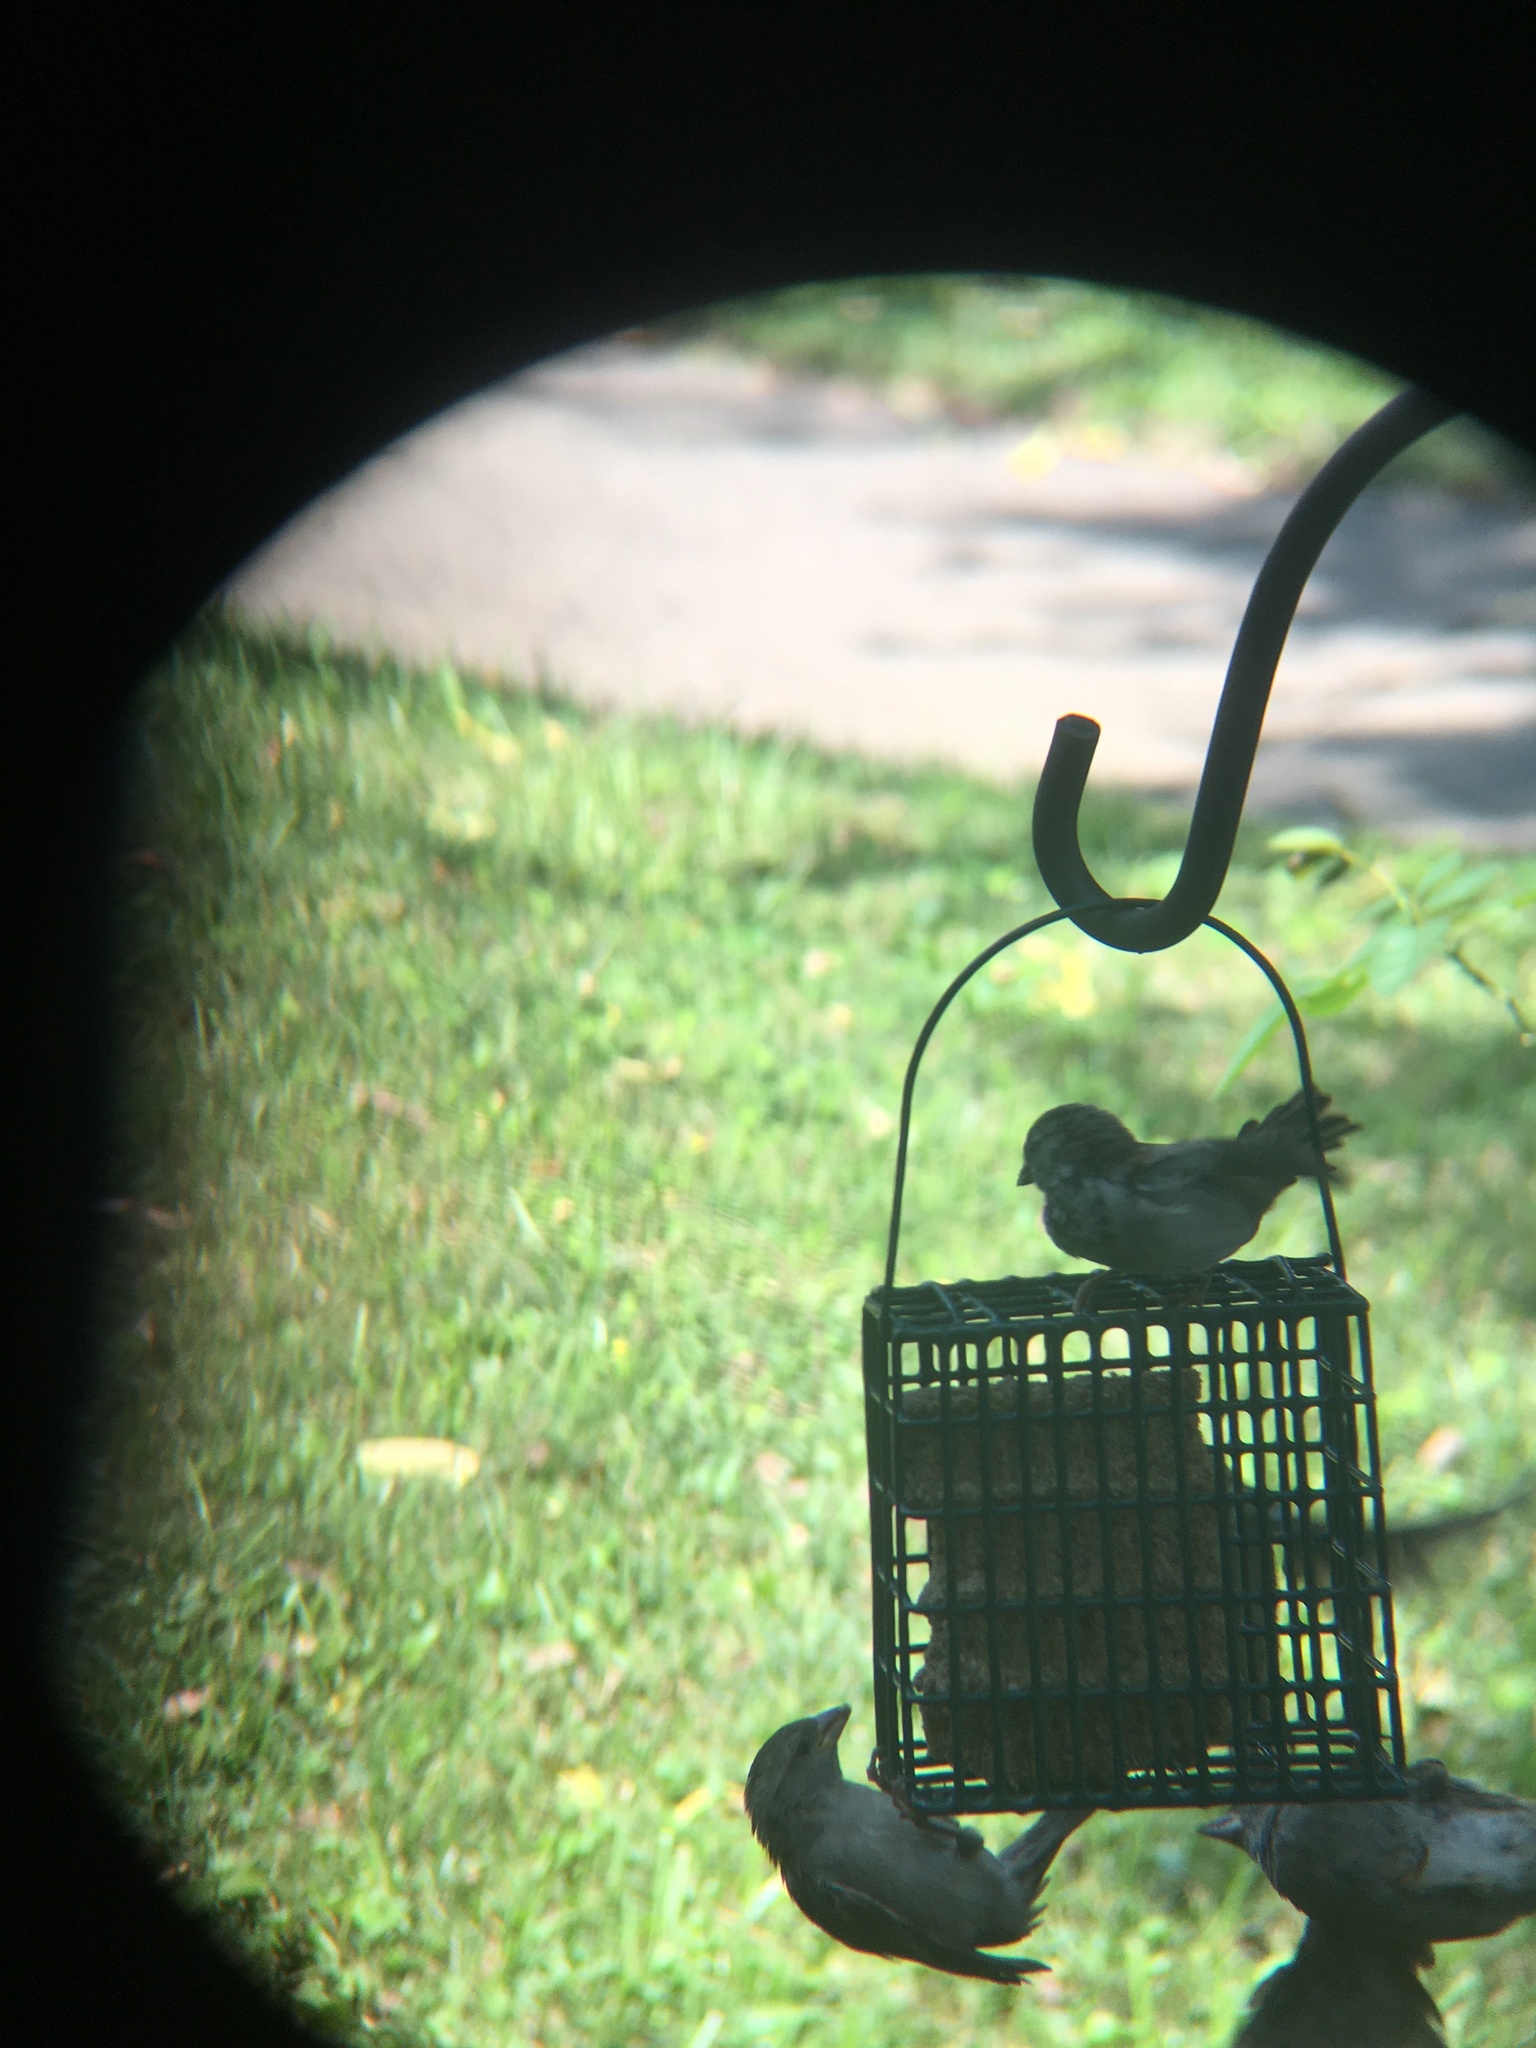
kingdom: Animalia
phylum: Chordata
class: Aves
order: Passeriformes
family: Passeridae
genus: Passer
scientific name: Passer domesticus
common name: House sparrow
